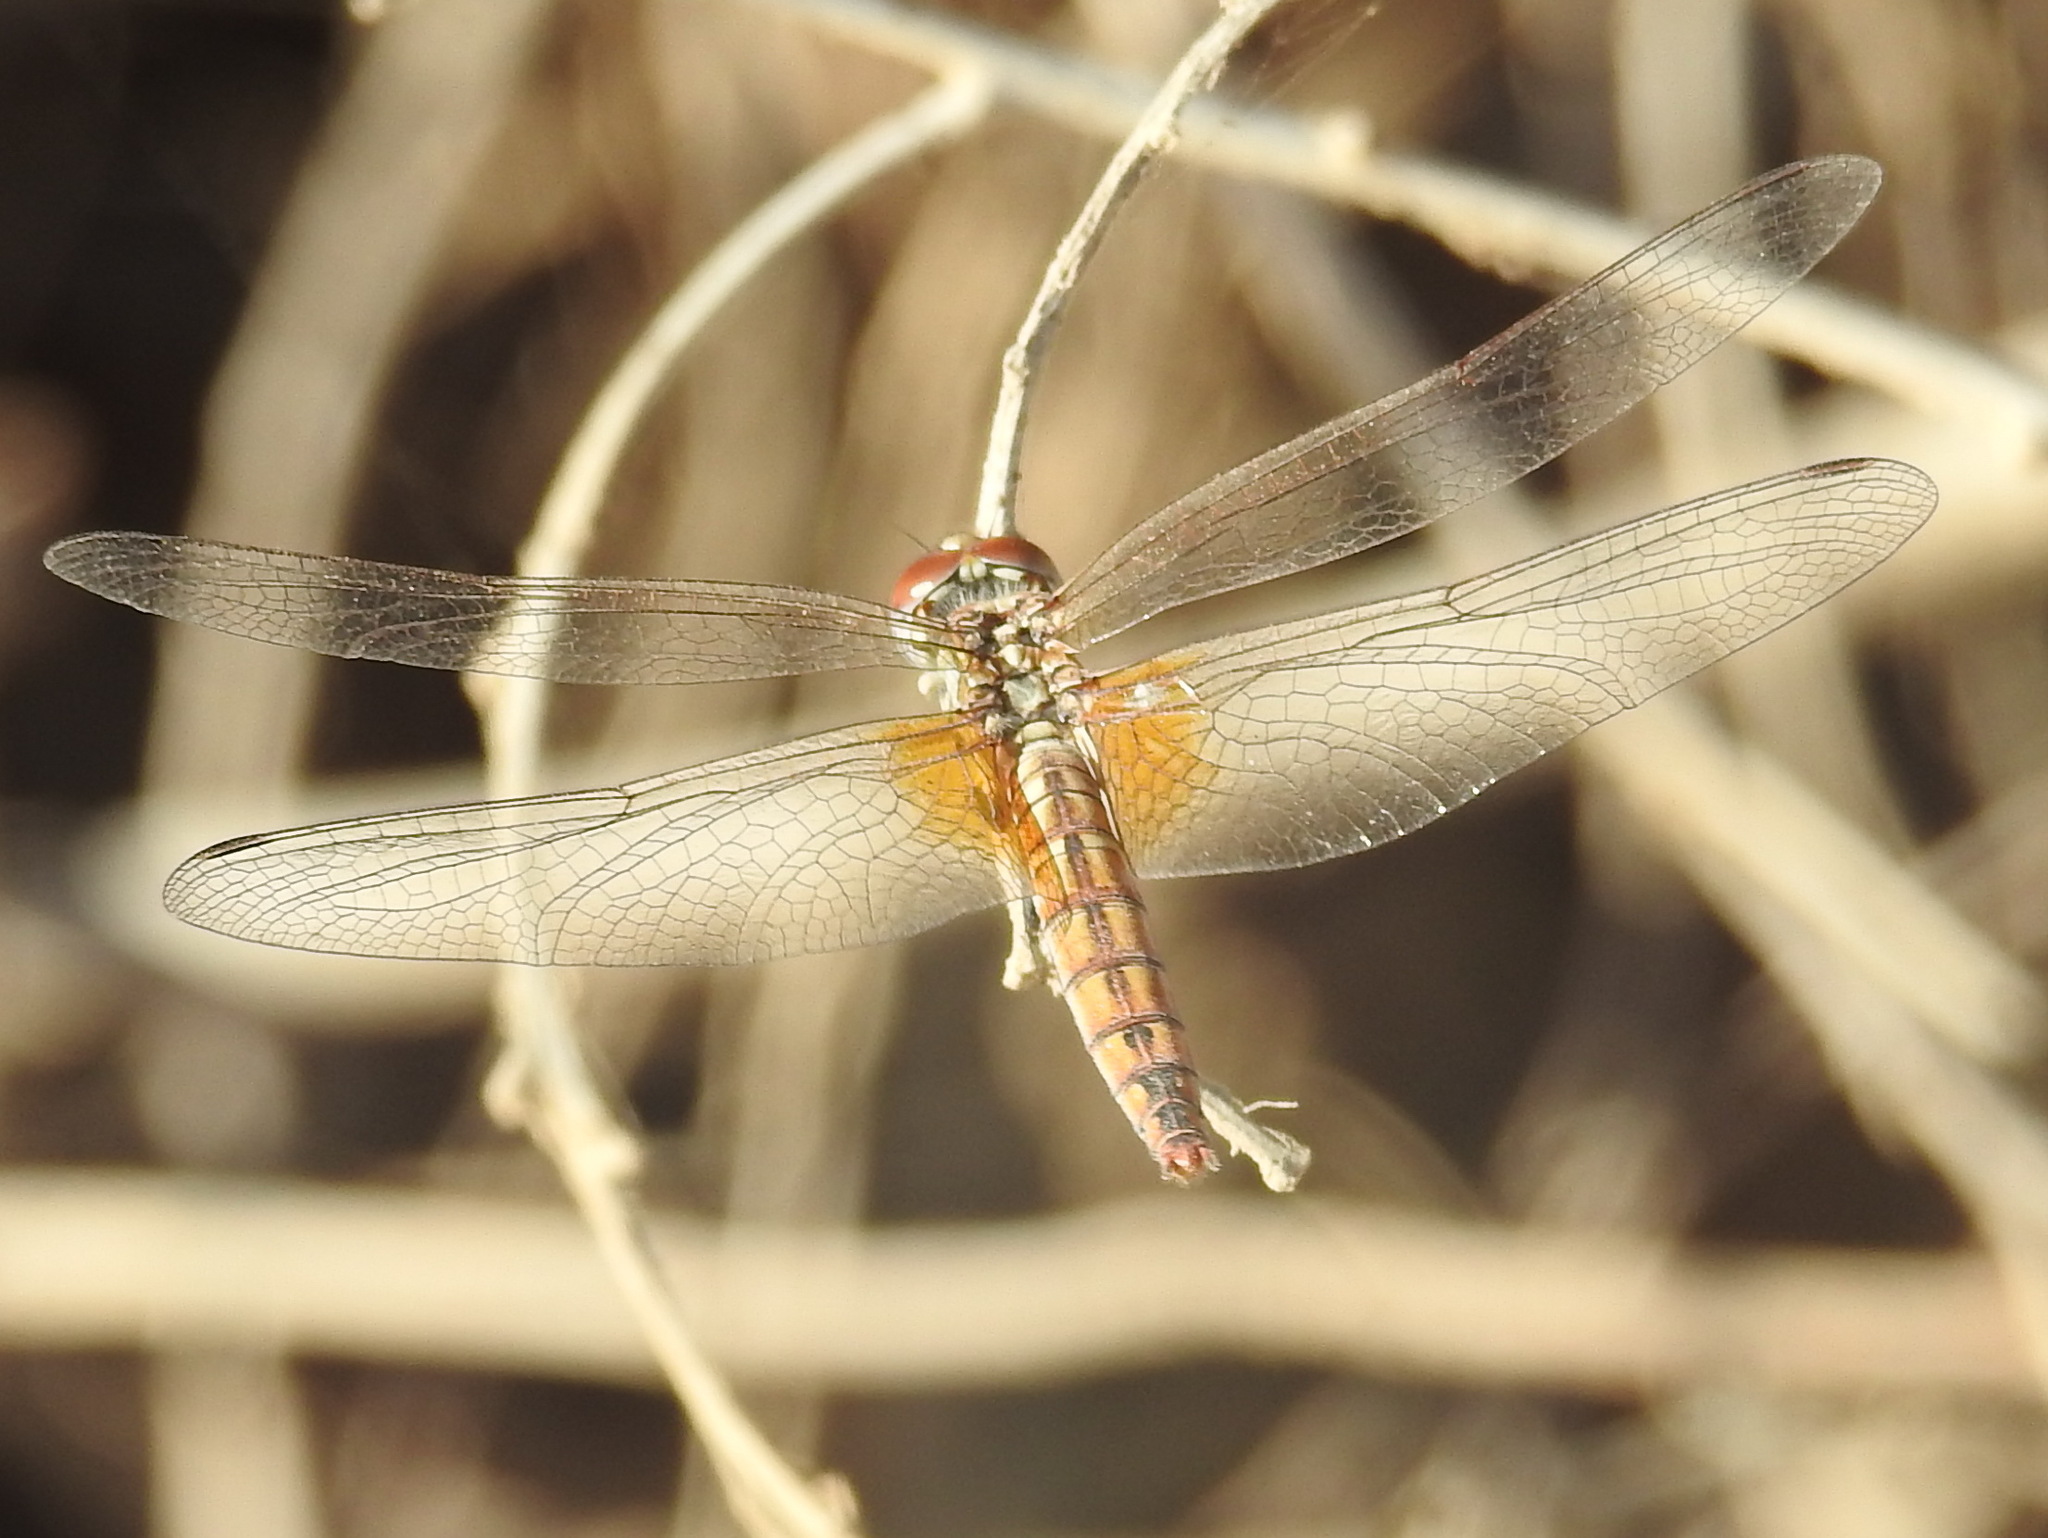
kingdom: Animalia
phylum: Arthropoda
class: Insecta
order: Odonata
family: Libellulidae
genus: Trithemis
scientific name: Trithemis annulata
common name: Violet dropwing
